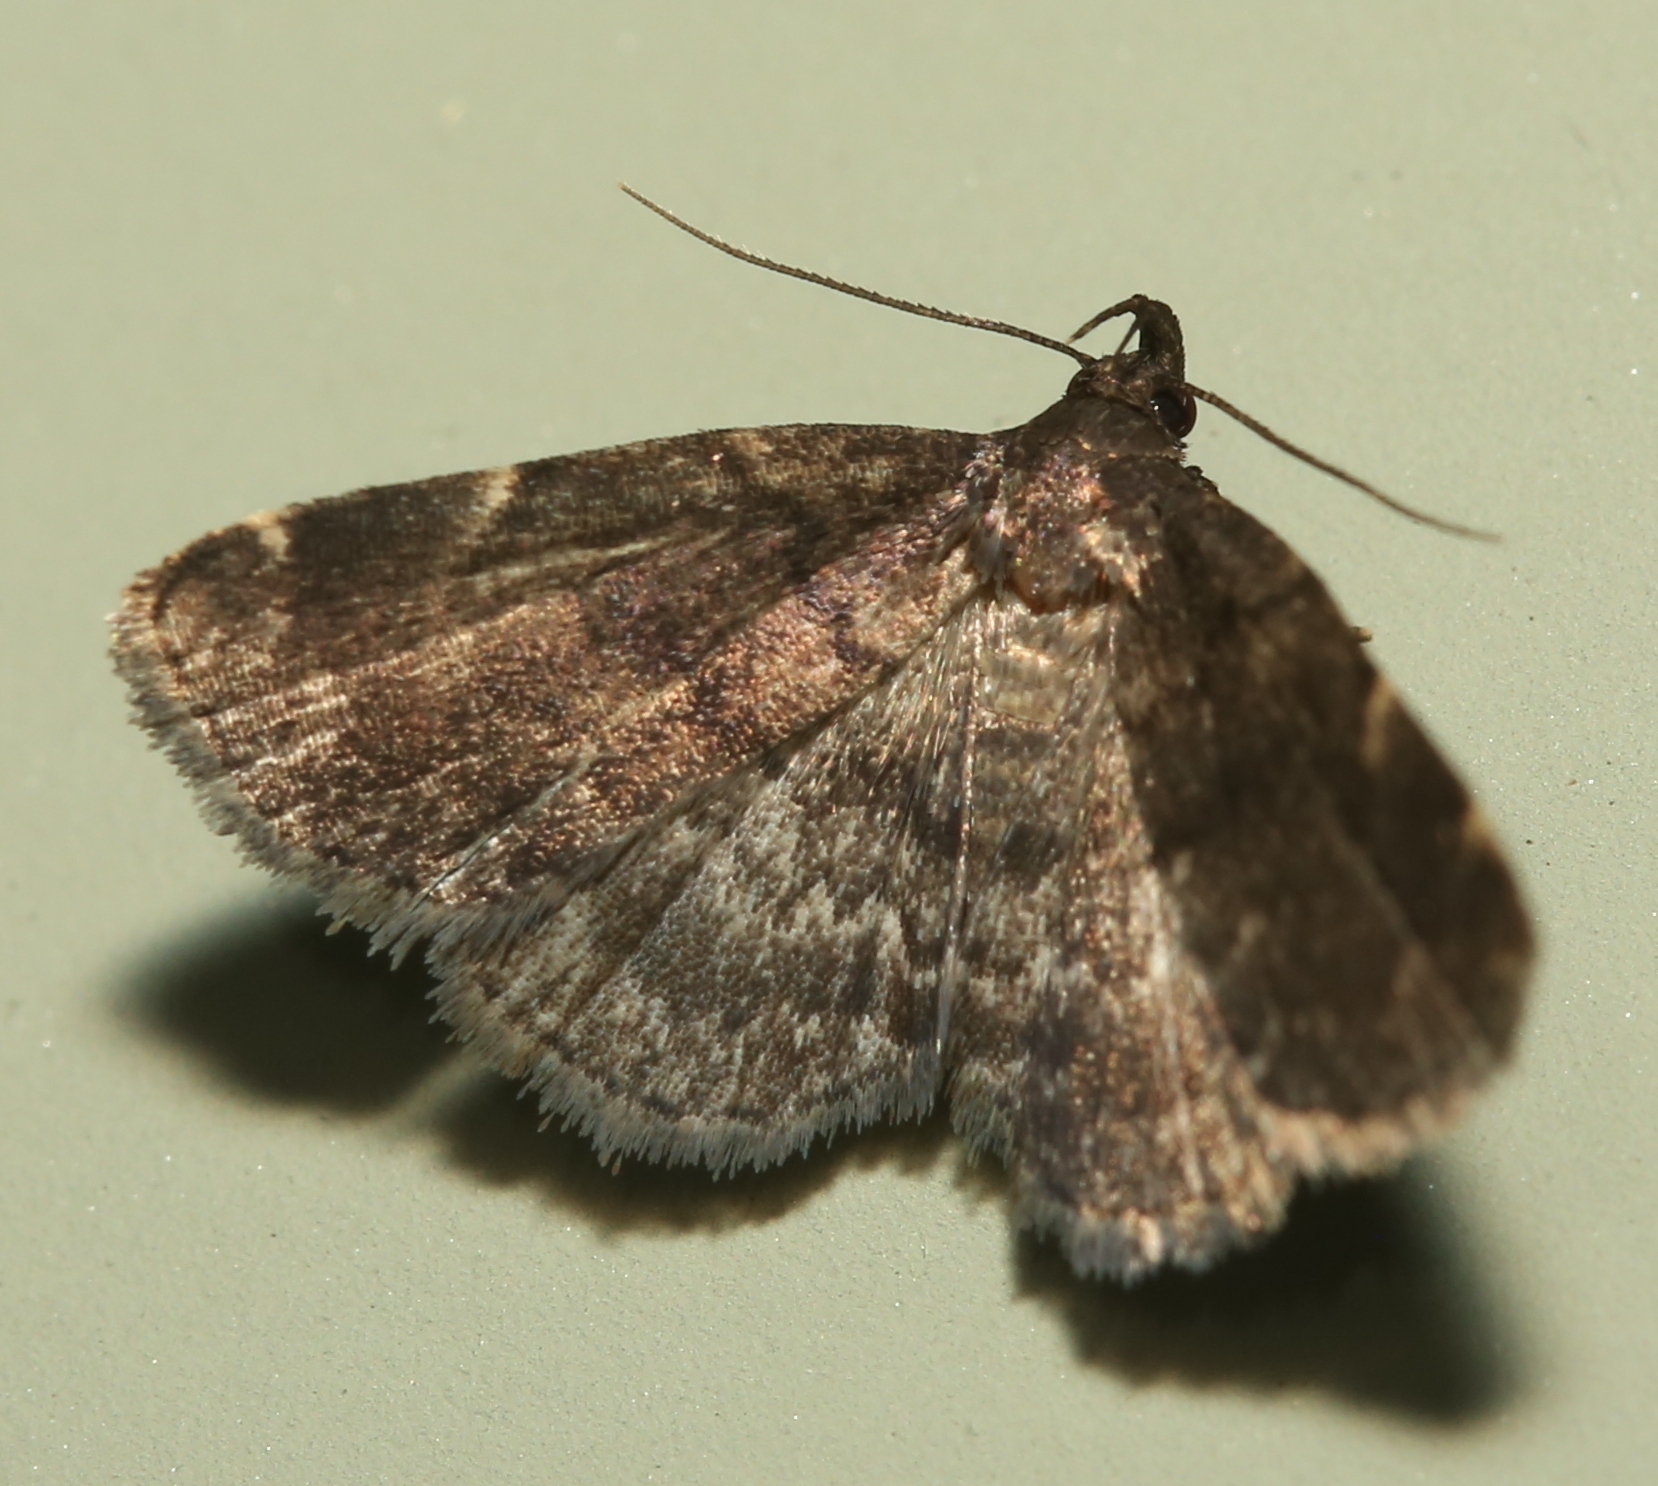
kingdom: Animalia
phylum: Arthropoda
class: Insecta
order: Lepidoptera
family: Erebidae
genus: Idia
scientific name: Idia forbesii
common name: Forbes' idia moth
